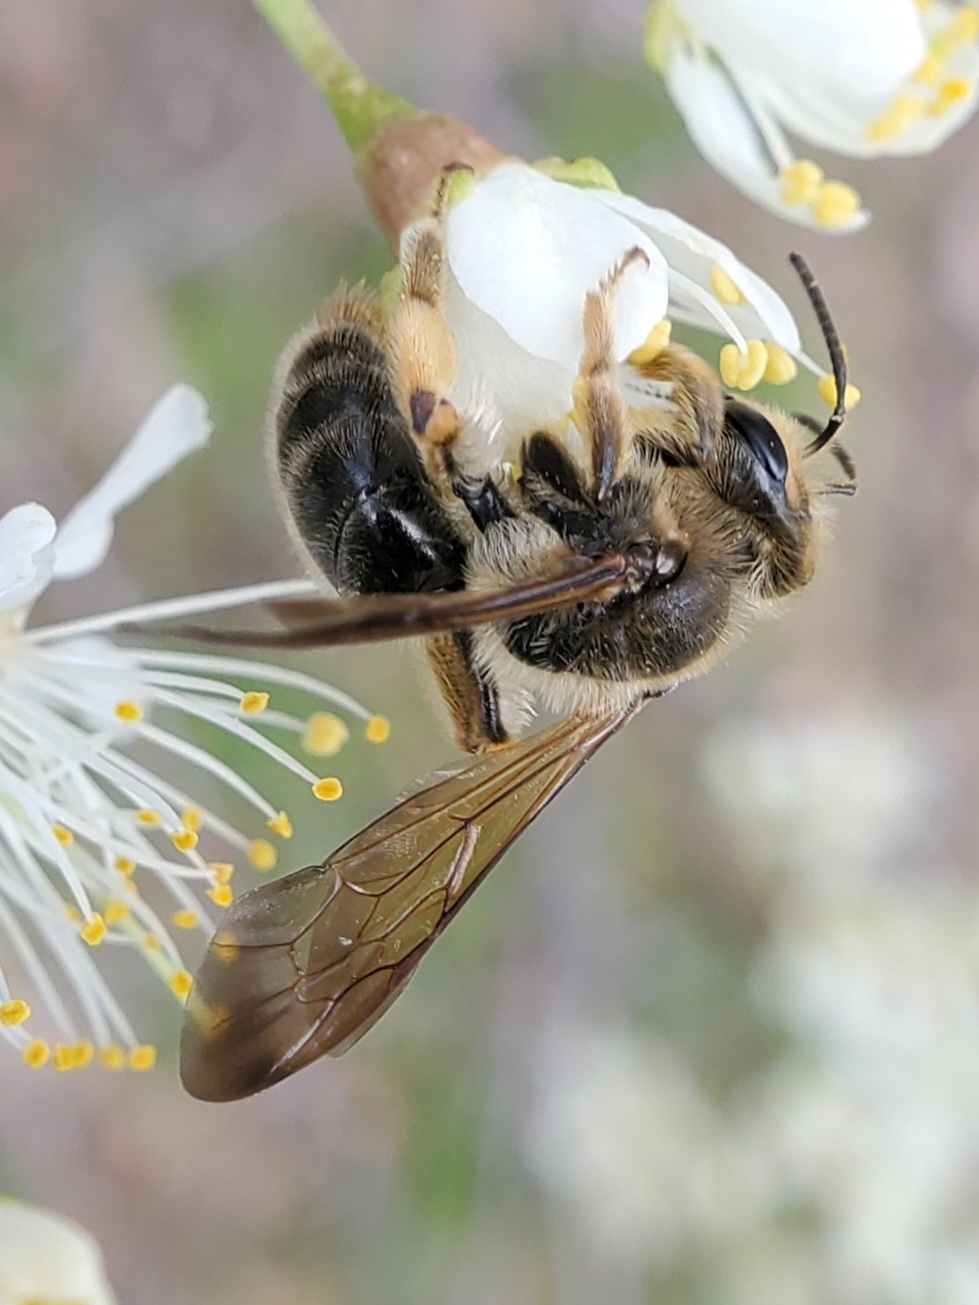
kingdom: Animalia
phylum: Arthropoda
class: Insecta
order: Hymenoptera
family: Andrenidae
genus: Andrena
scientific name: Andrena illini
